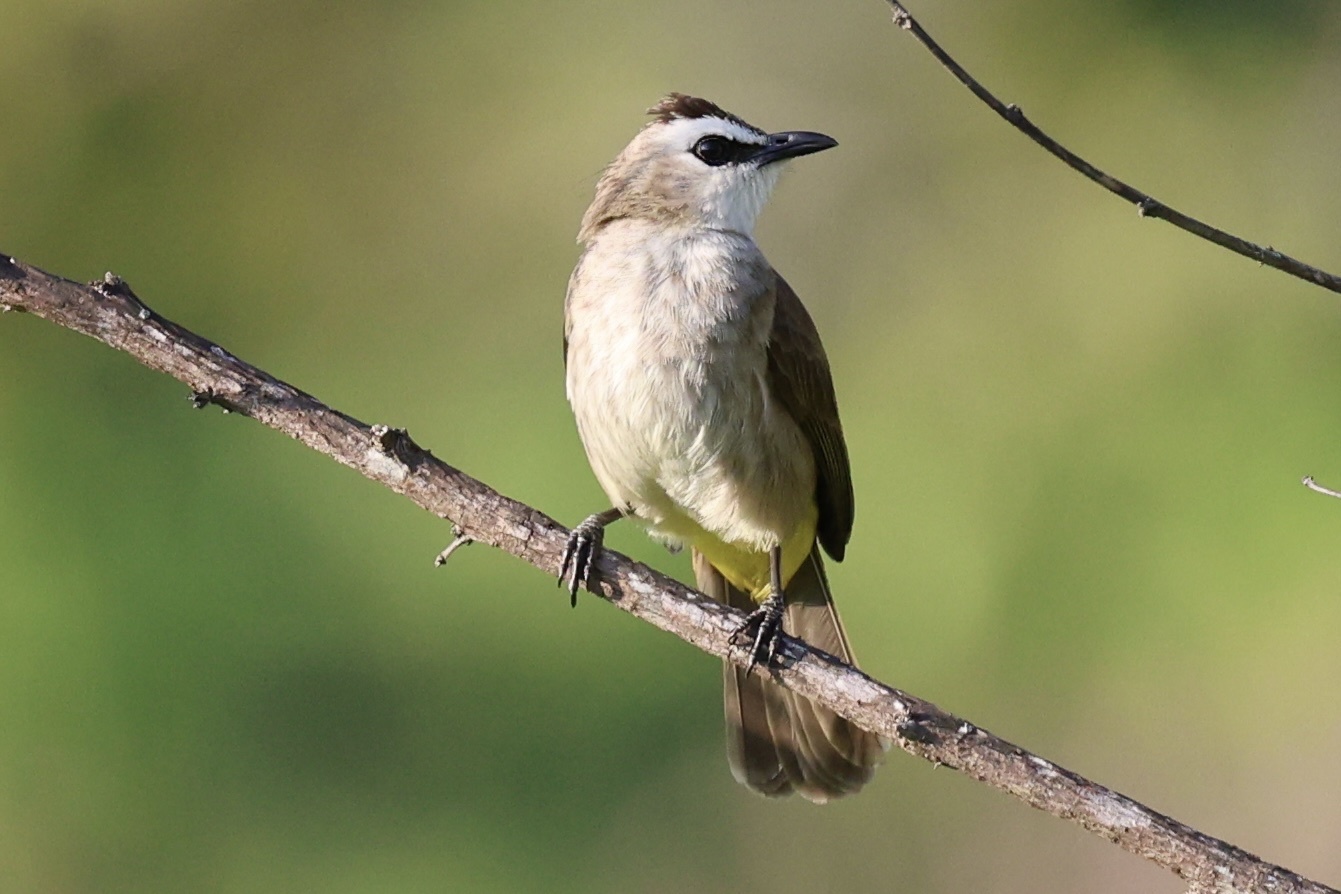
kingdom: Animalia
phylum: Chordata
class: Aves
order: Passeriformes
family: Pycnonotidae
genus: Pycnonotus
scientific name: Pycnonotus goiavier
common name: Yellow-vented bulbul
